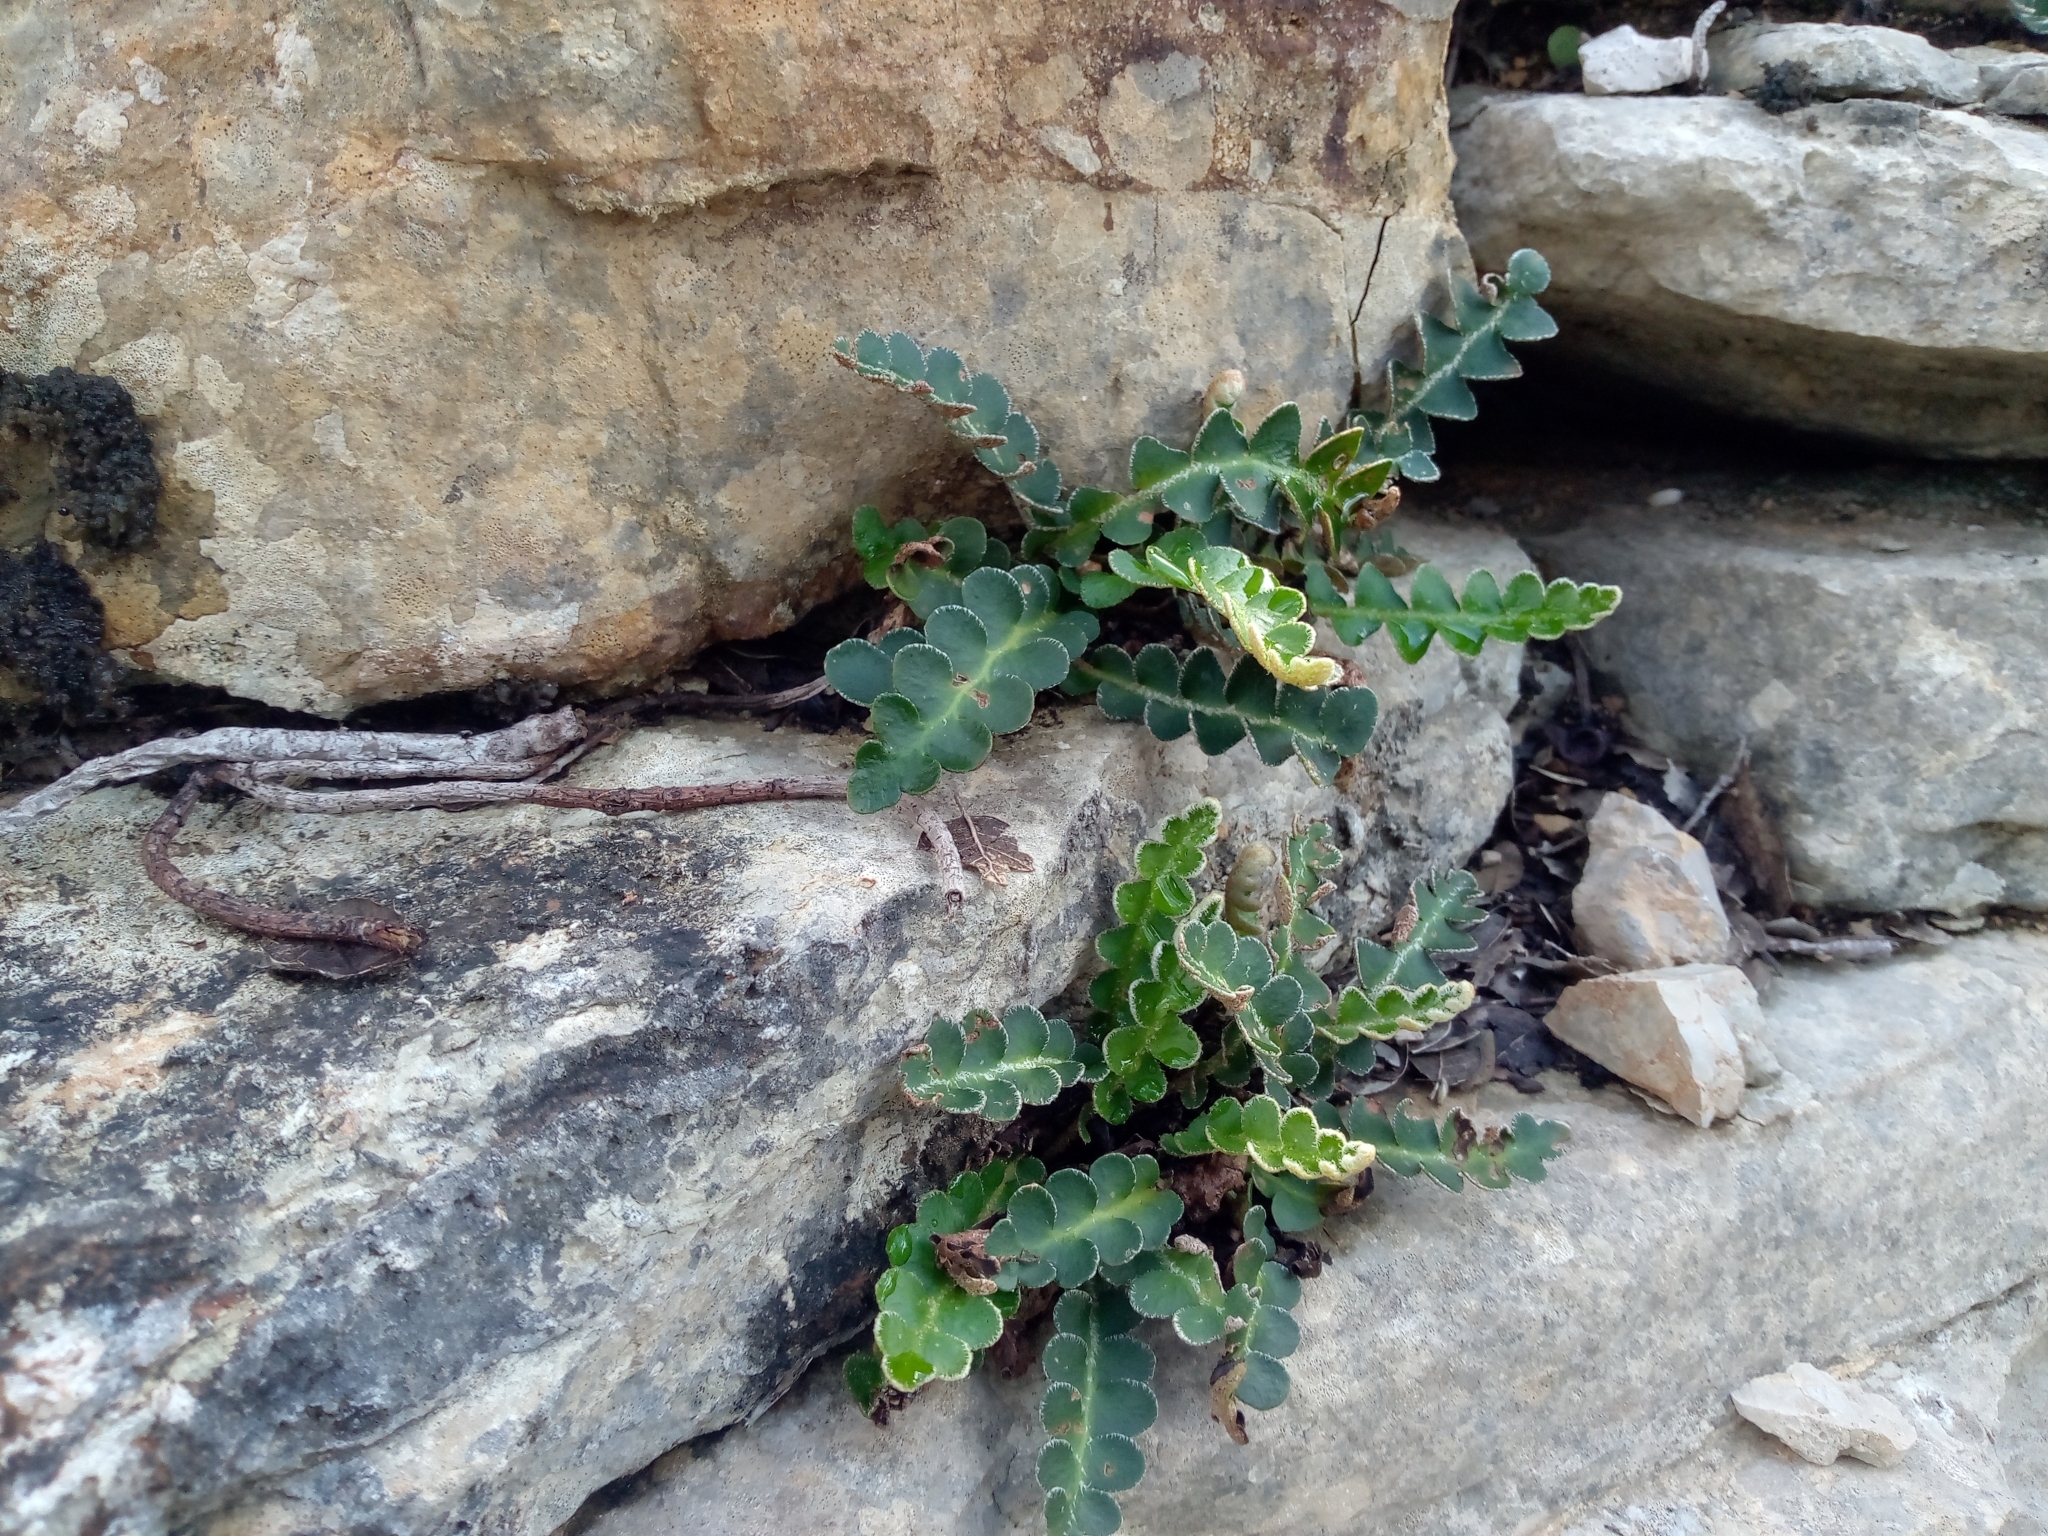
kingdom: Plantae
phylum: Tracheophyta
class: Polypodiopsida
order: Polypodiales
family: Aspleniaceae
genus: Asplenium
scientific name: Asplenium ceterach
